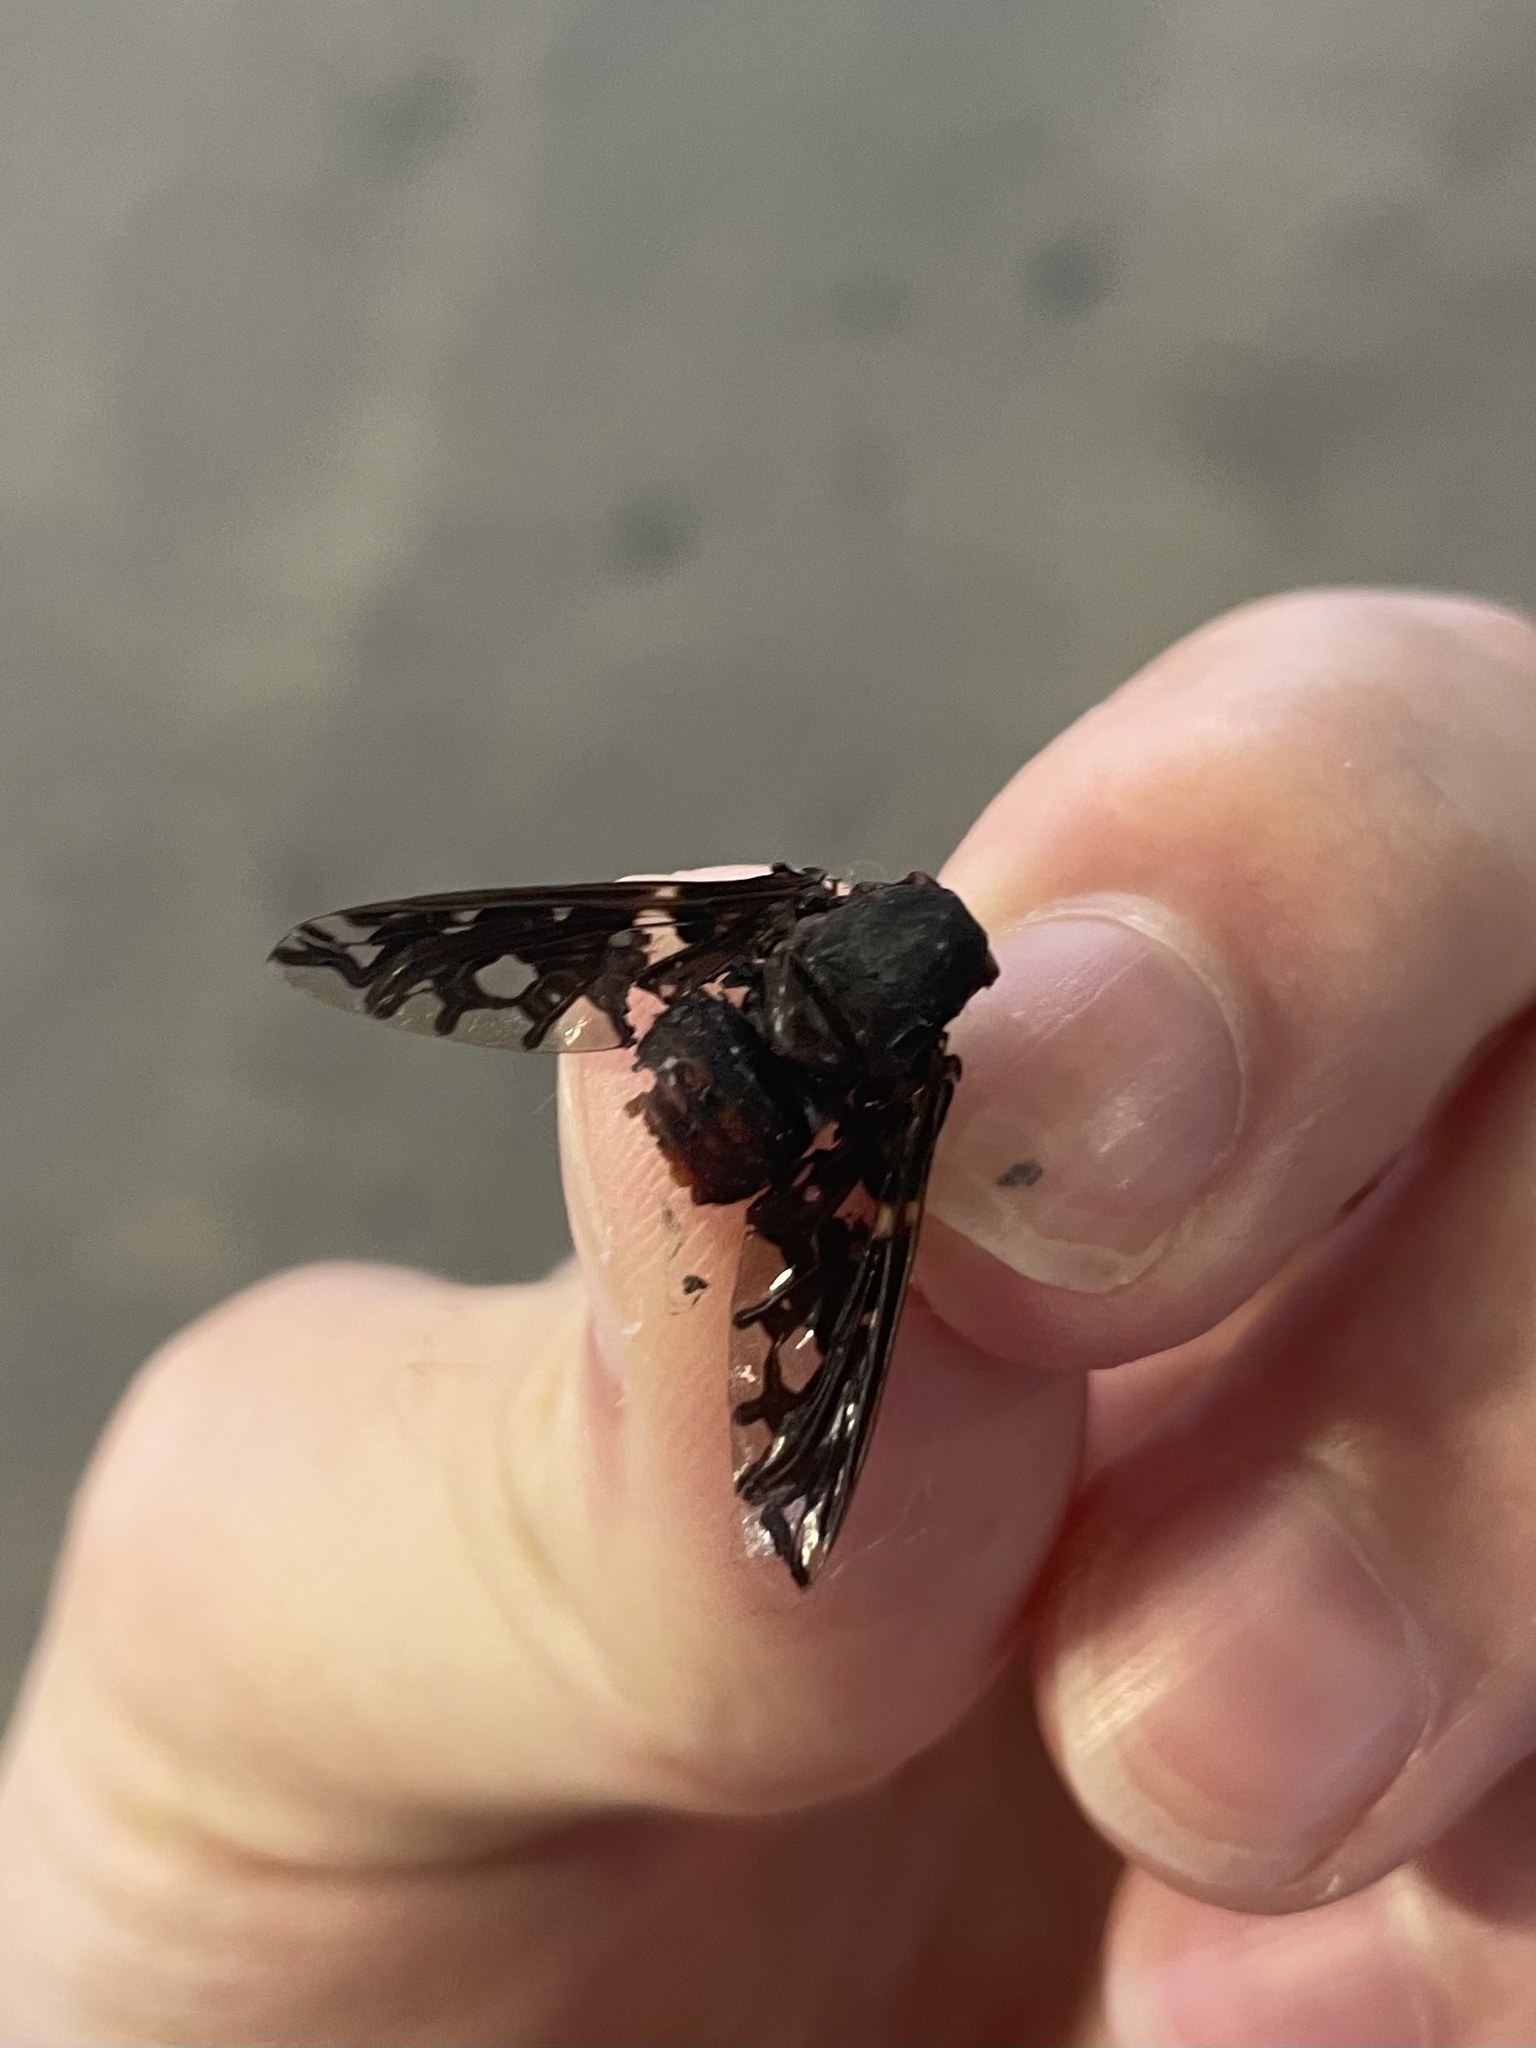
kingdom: Animalia
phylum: Arthropoda
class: Insecta
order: Diptera
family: Bombyliidae
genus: Xenox
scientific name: Xenox tigrinus
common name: Tiger bee fly
